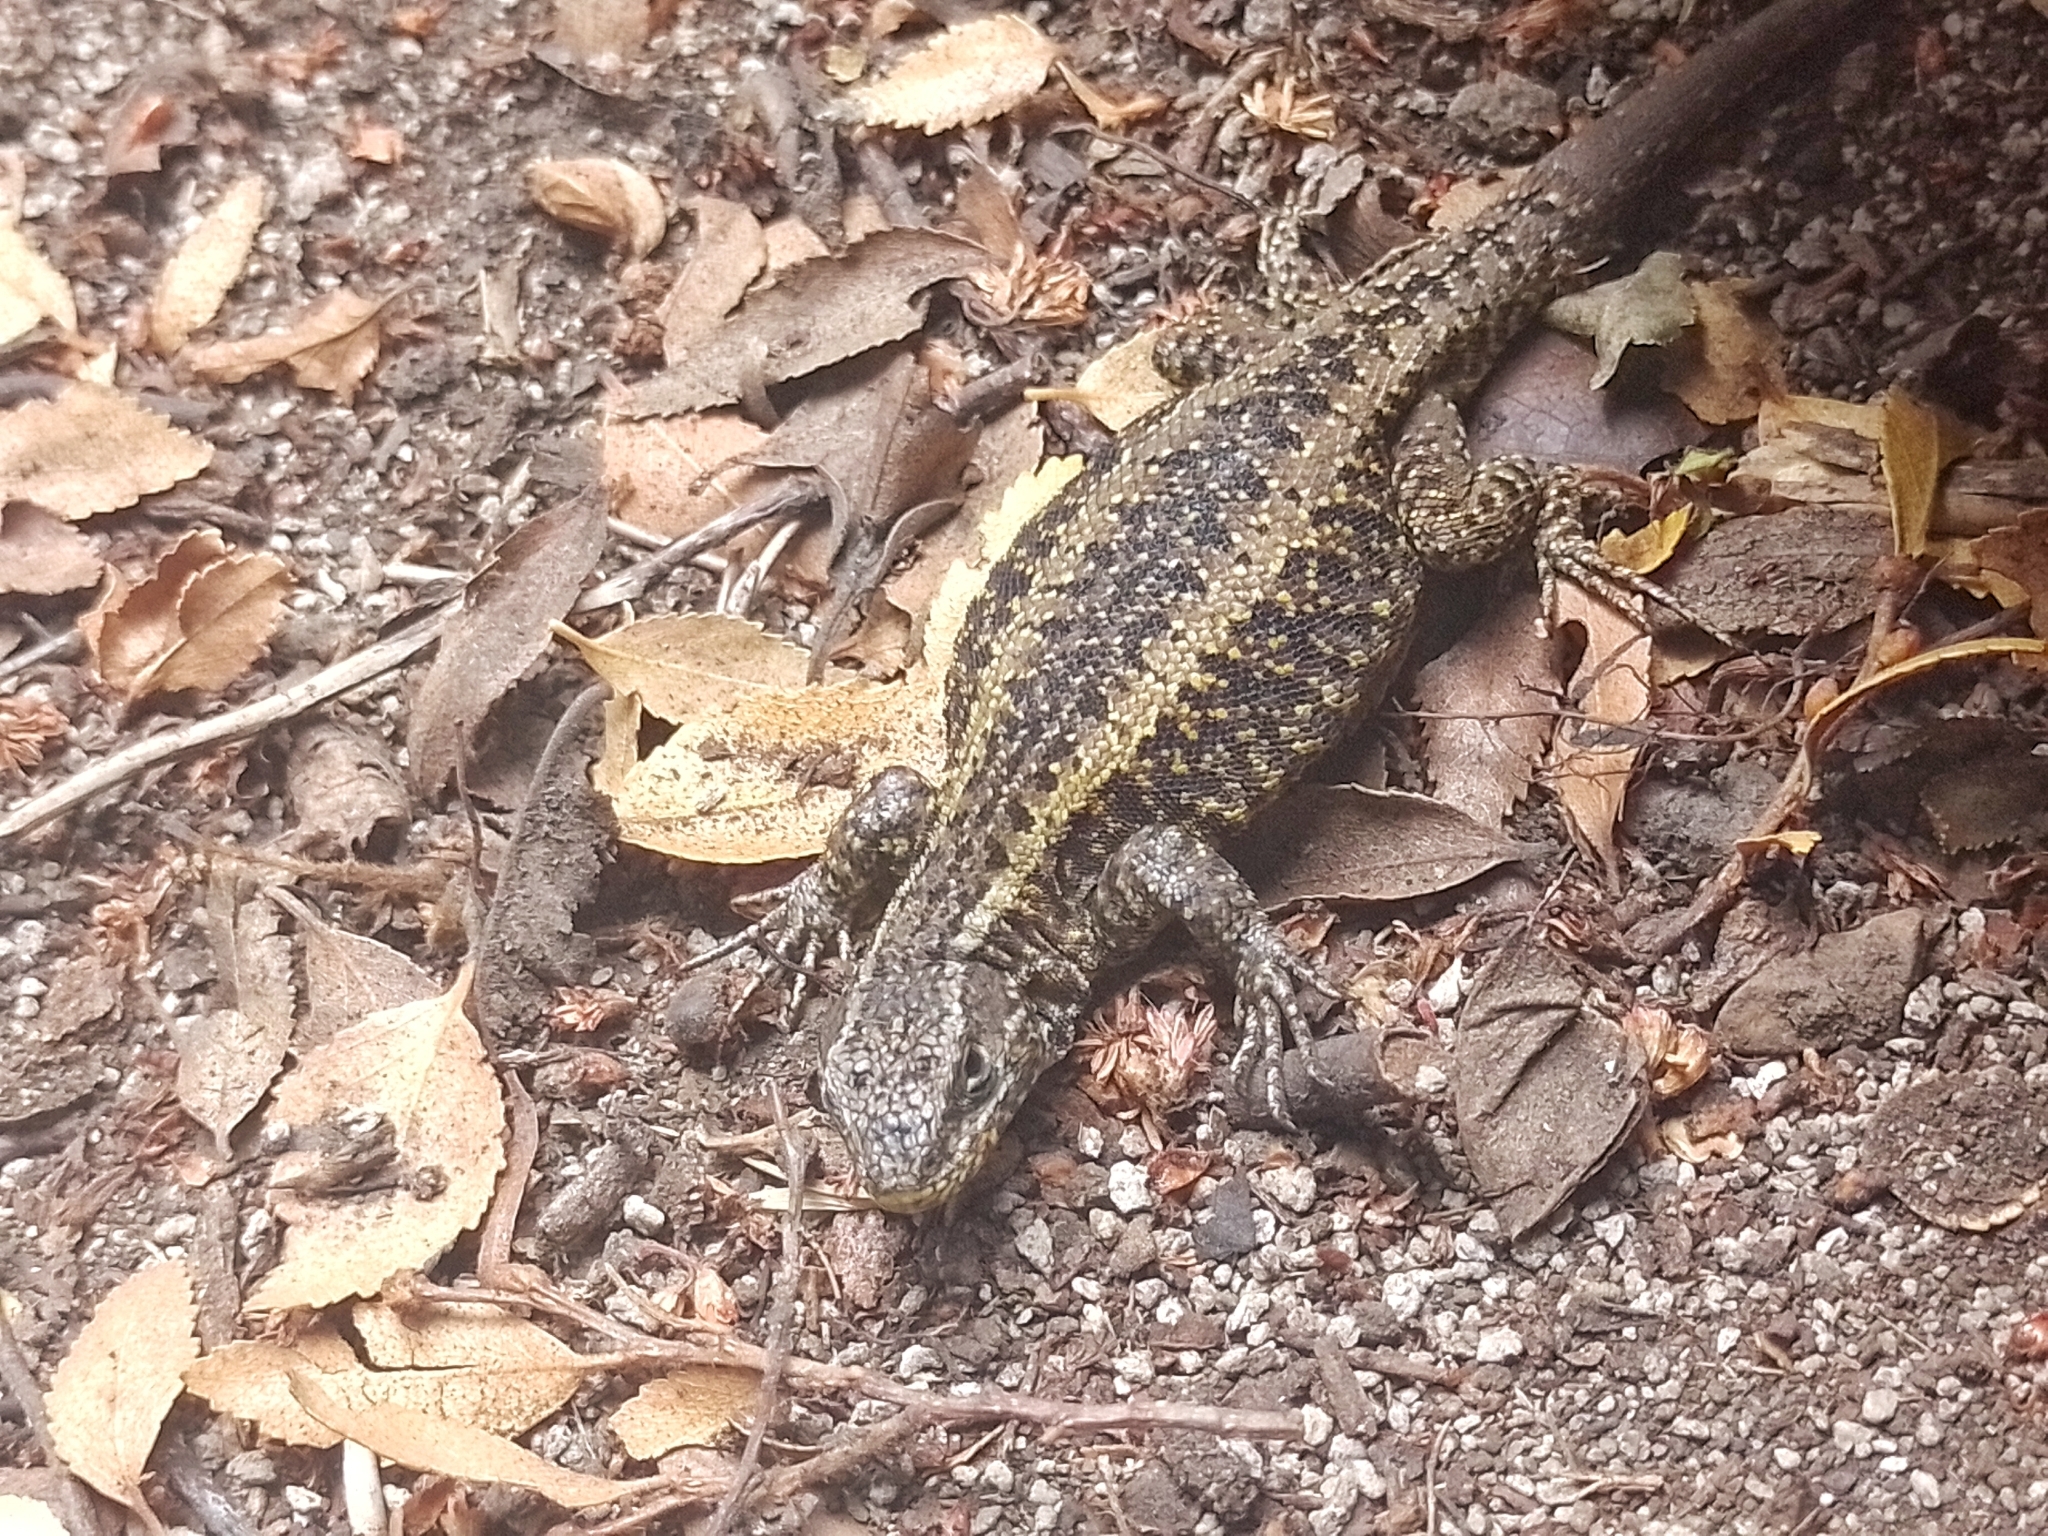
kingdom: Animalia
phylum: Chordata
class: Squamata
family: Liolaemidae
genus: Liolaemus
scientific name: Liolaemus pictus
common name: Painted tree iguana
